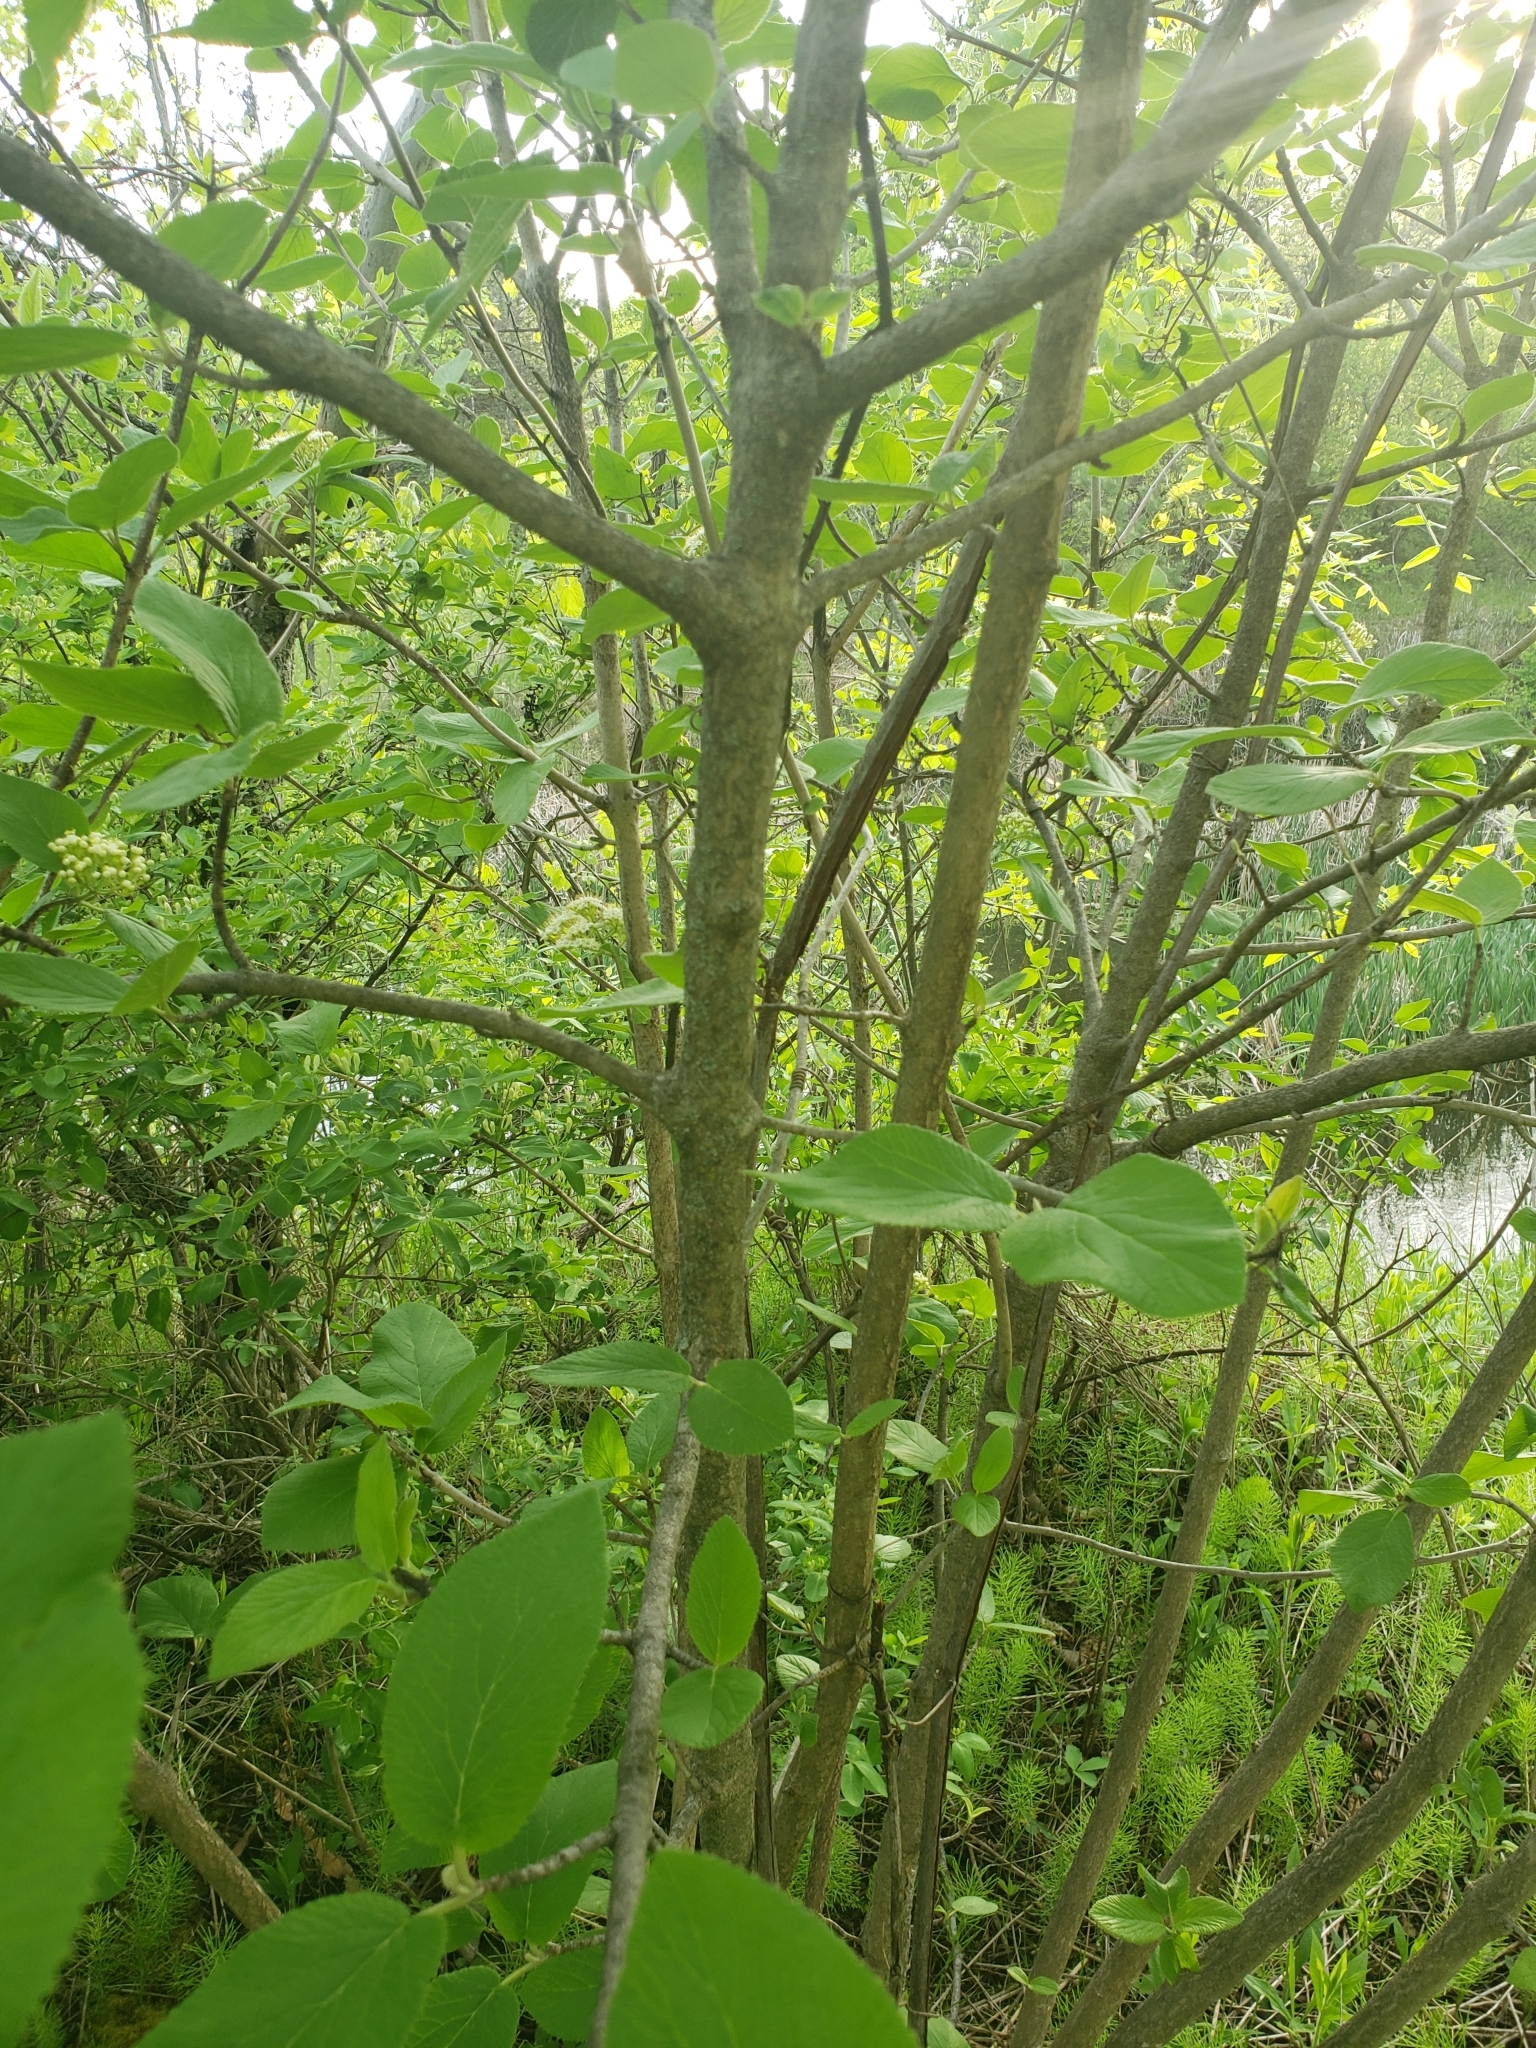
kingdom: Plantae
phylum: Tracheophyta
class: Magnoliopsida
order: Dipsacales
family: Viburnaceae
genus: Viburnum
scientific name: Viburnum lantana
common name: Wayfaring tree
